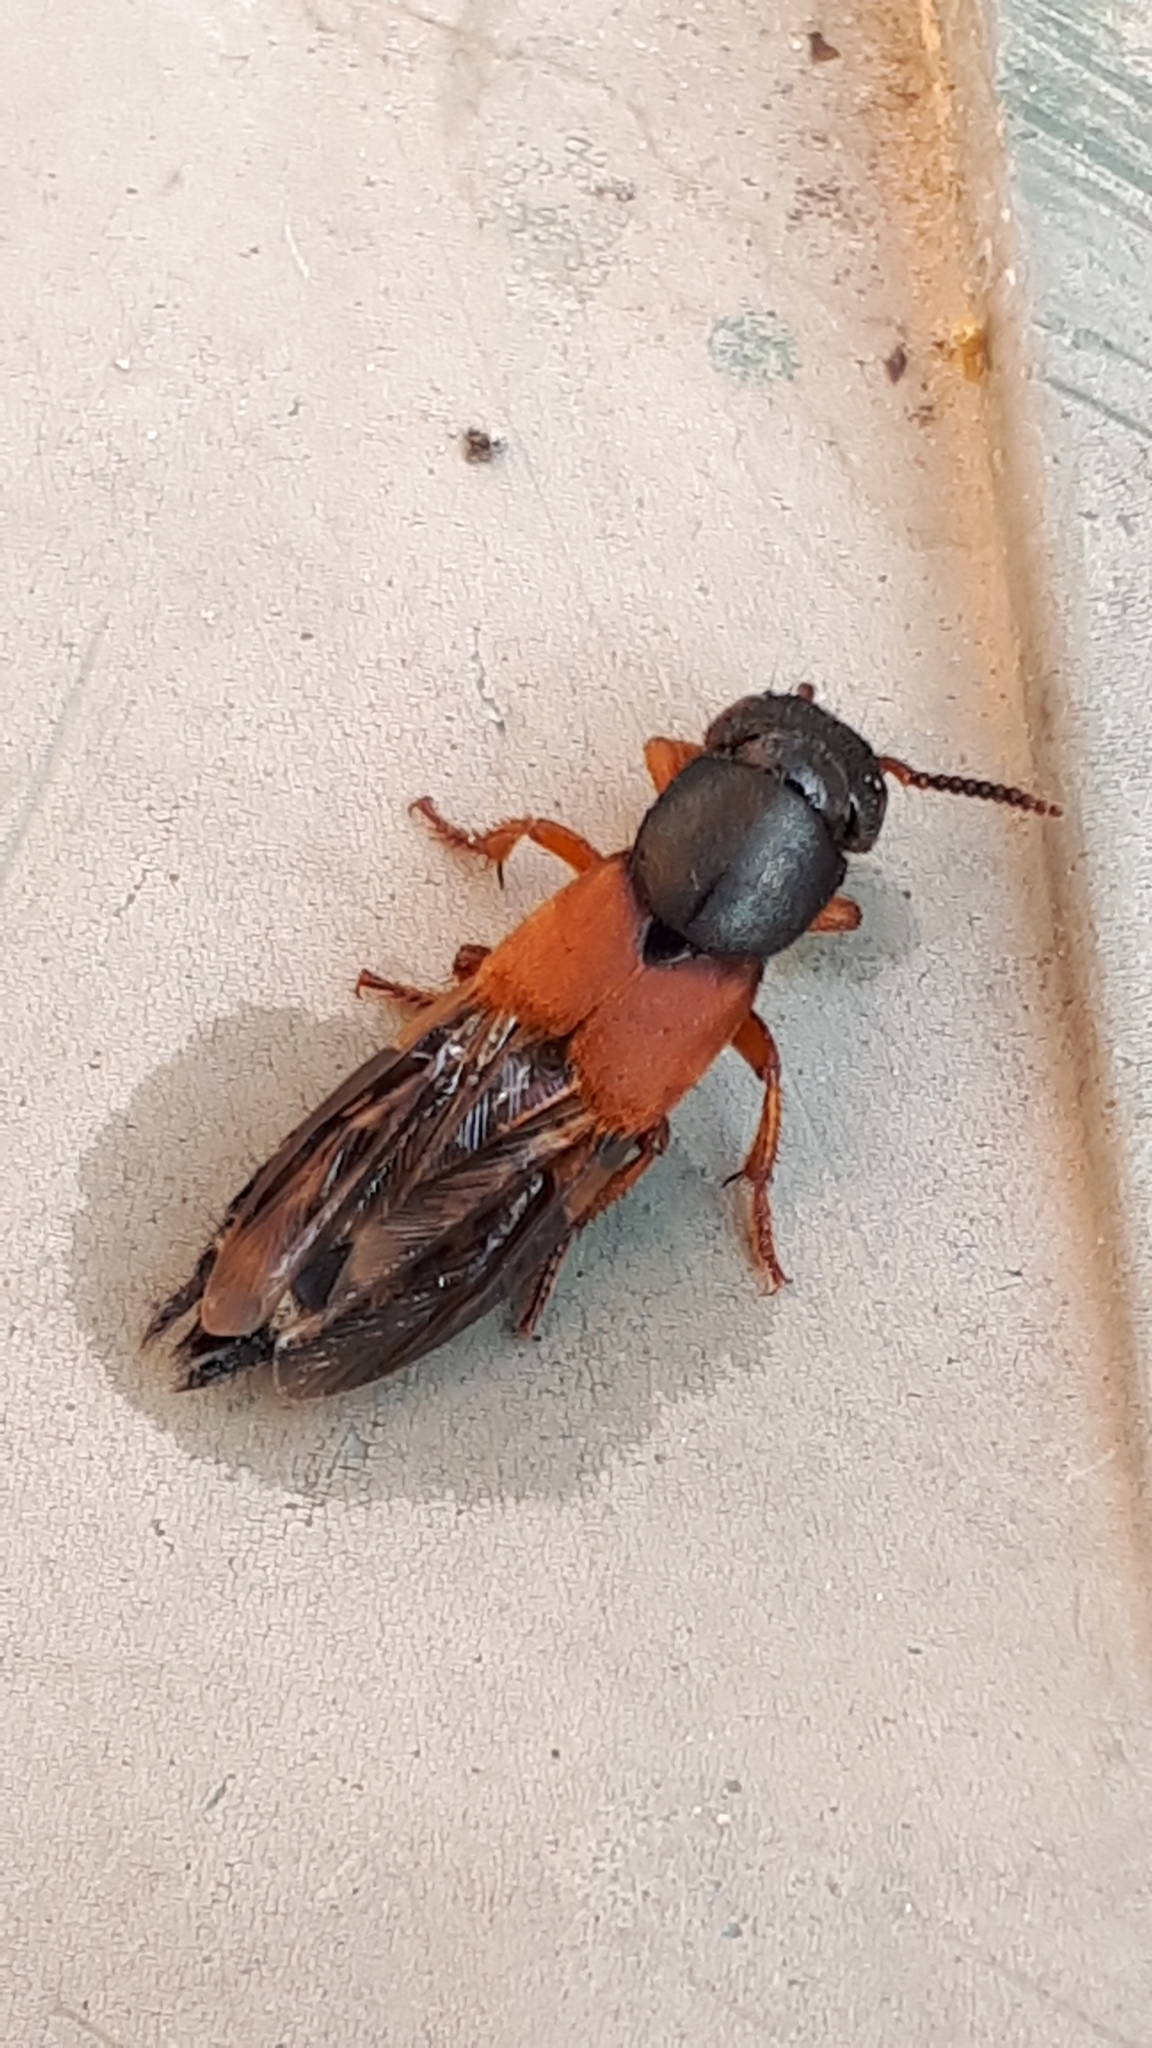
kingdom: Animalia
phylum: Arthropoda
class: Insecta
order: Coleoptera
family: Staphylinidae
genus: Platydracus
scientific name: Platydracus stercorarius
